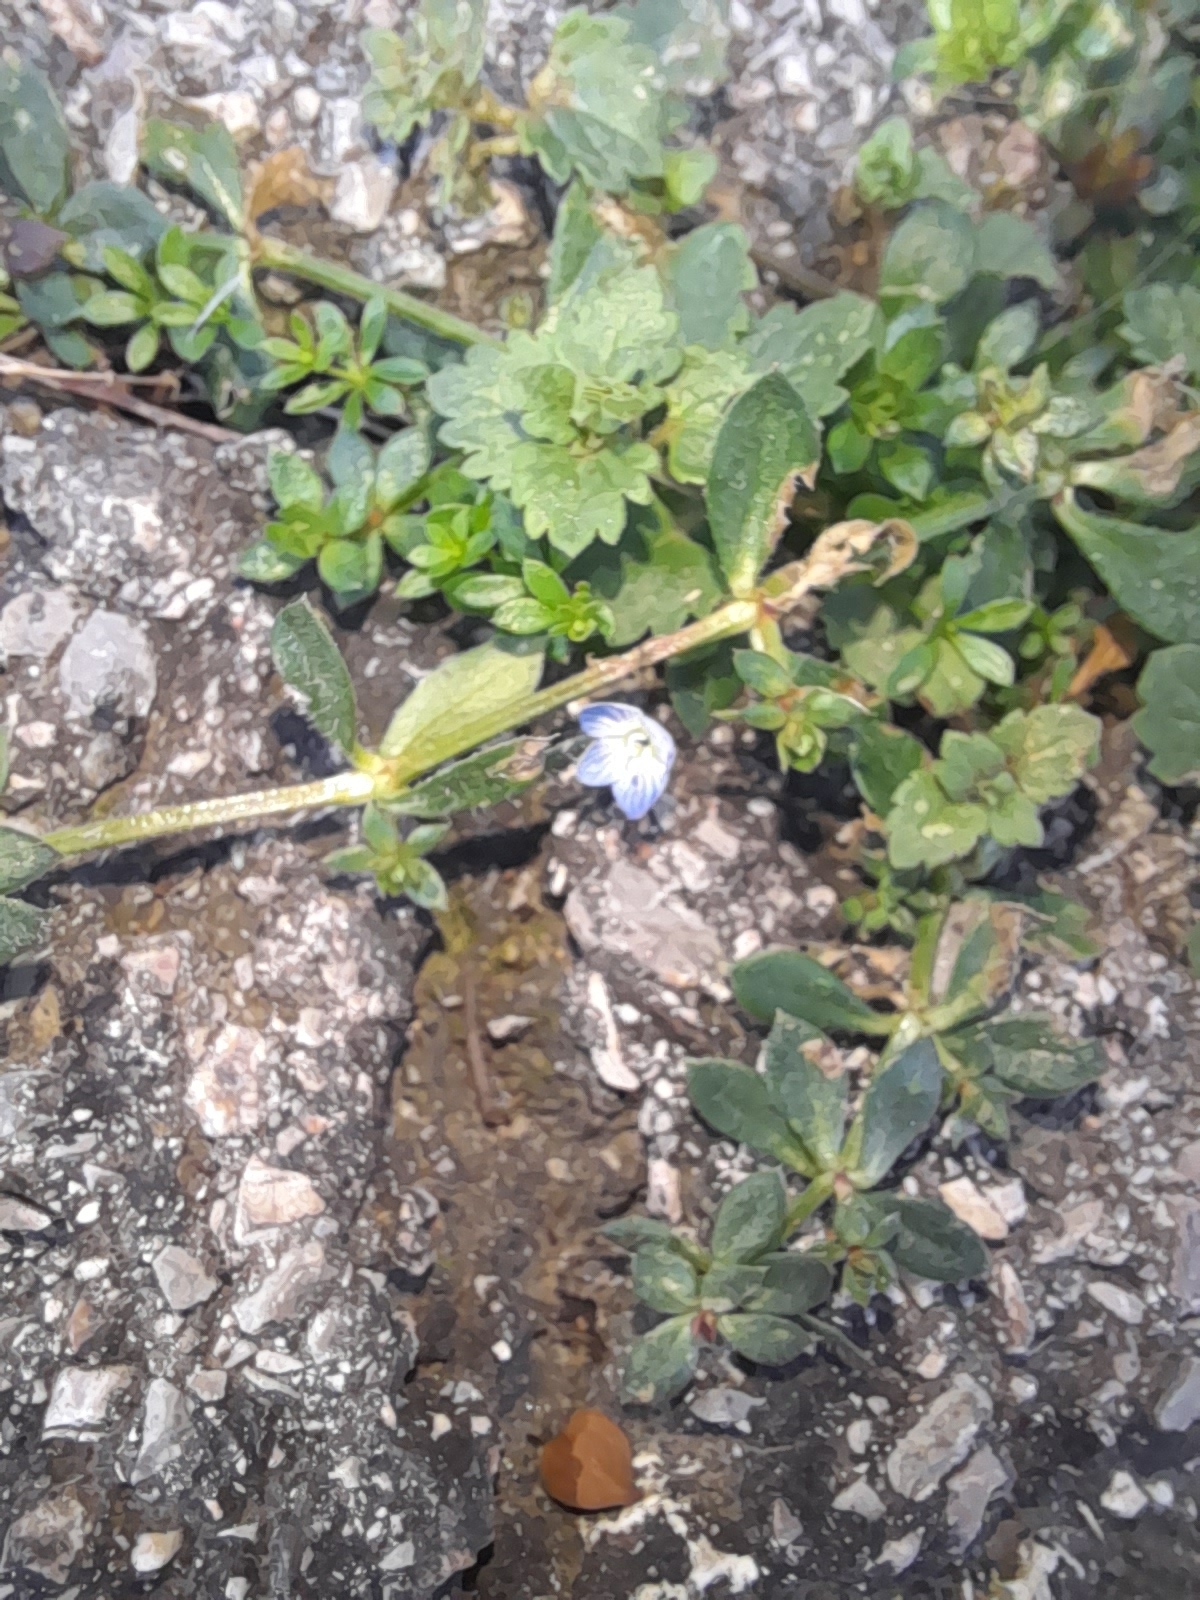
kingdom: Plantae
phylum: Tracheophyta
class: Magnoliopsida
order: Lamiales
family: Plantaginaceae
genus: Veronica
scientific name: Veronica persica
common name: Common field-speedwell
